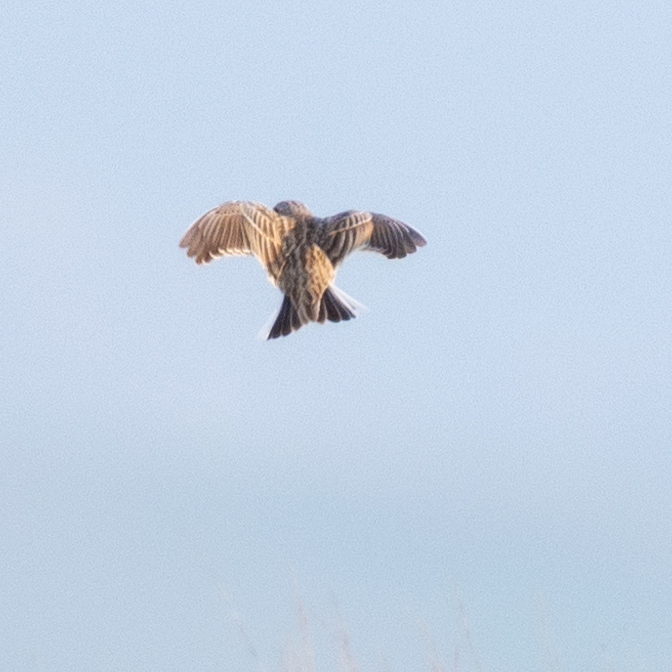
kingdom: Animalia
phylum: Chordata
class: Aves
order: Passeriformes
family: Alaudidae
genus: Alauda
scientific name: Alauda arvensis
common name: Eurasian skylark
